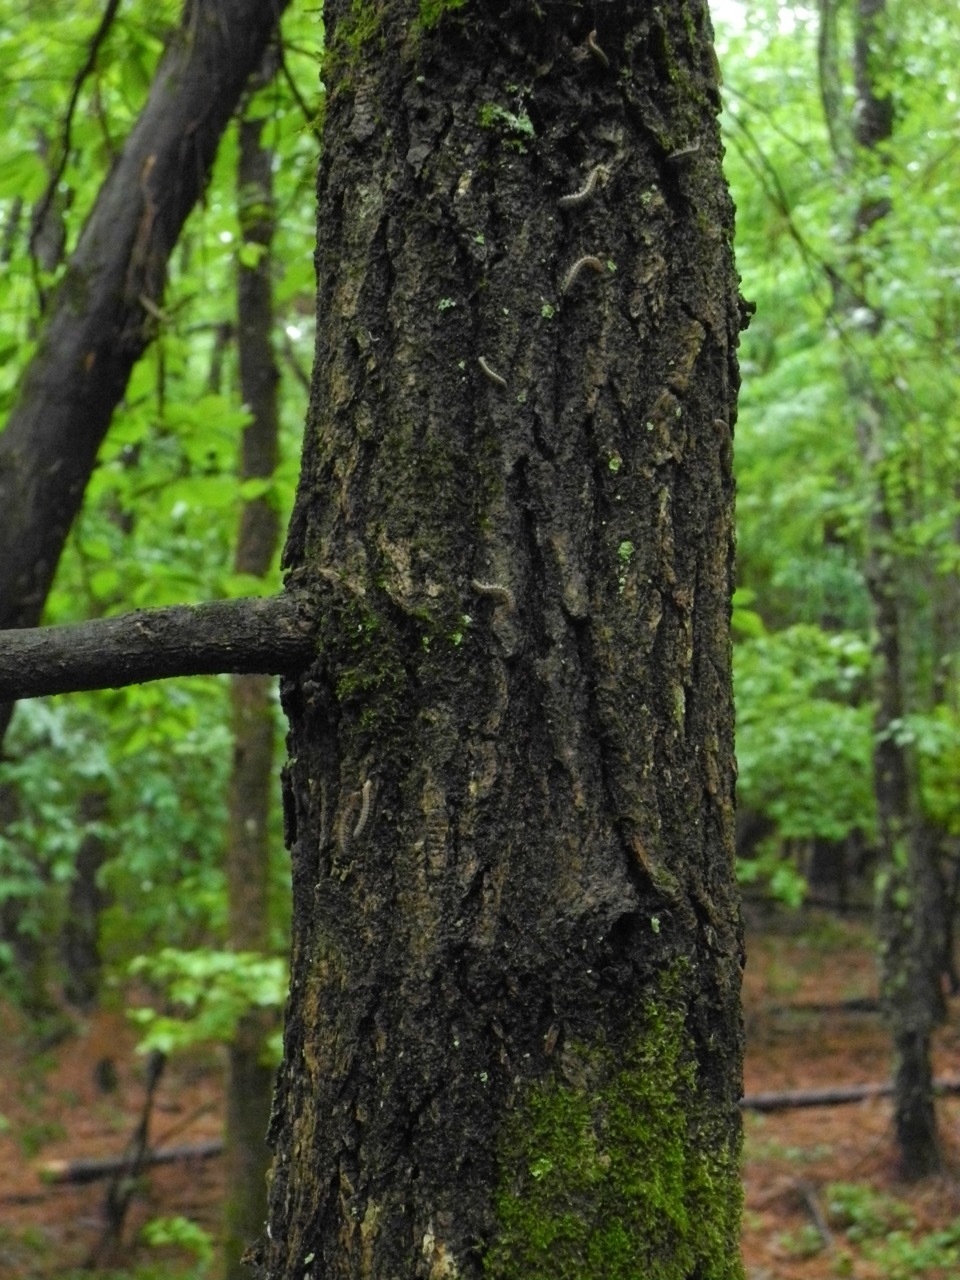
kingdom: Plantae
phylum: Tracheophyta
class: Magnoliopsida
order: Cornales
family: Nyssaceae
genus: Nyssa
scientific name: Nyssa sylvatica
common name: Black tupelo
